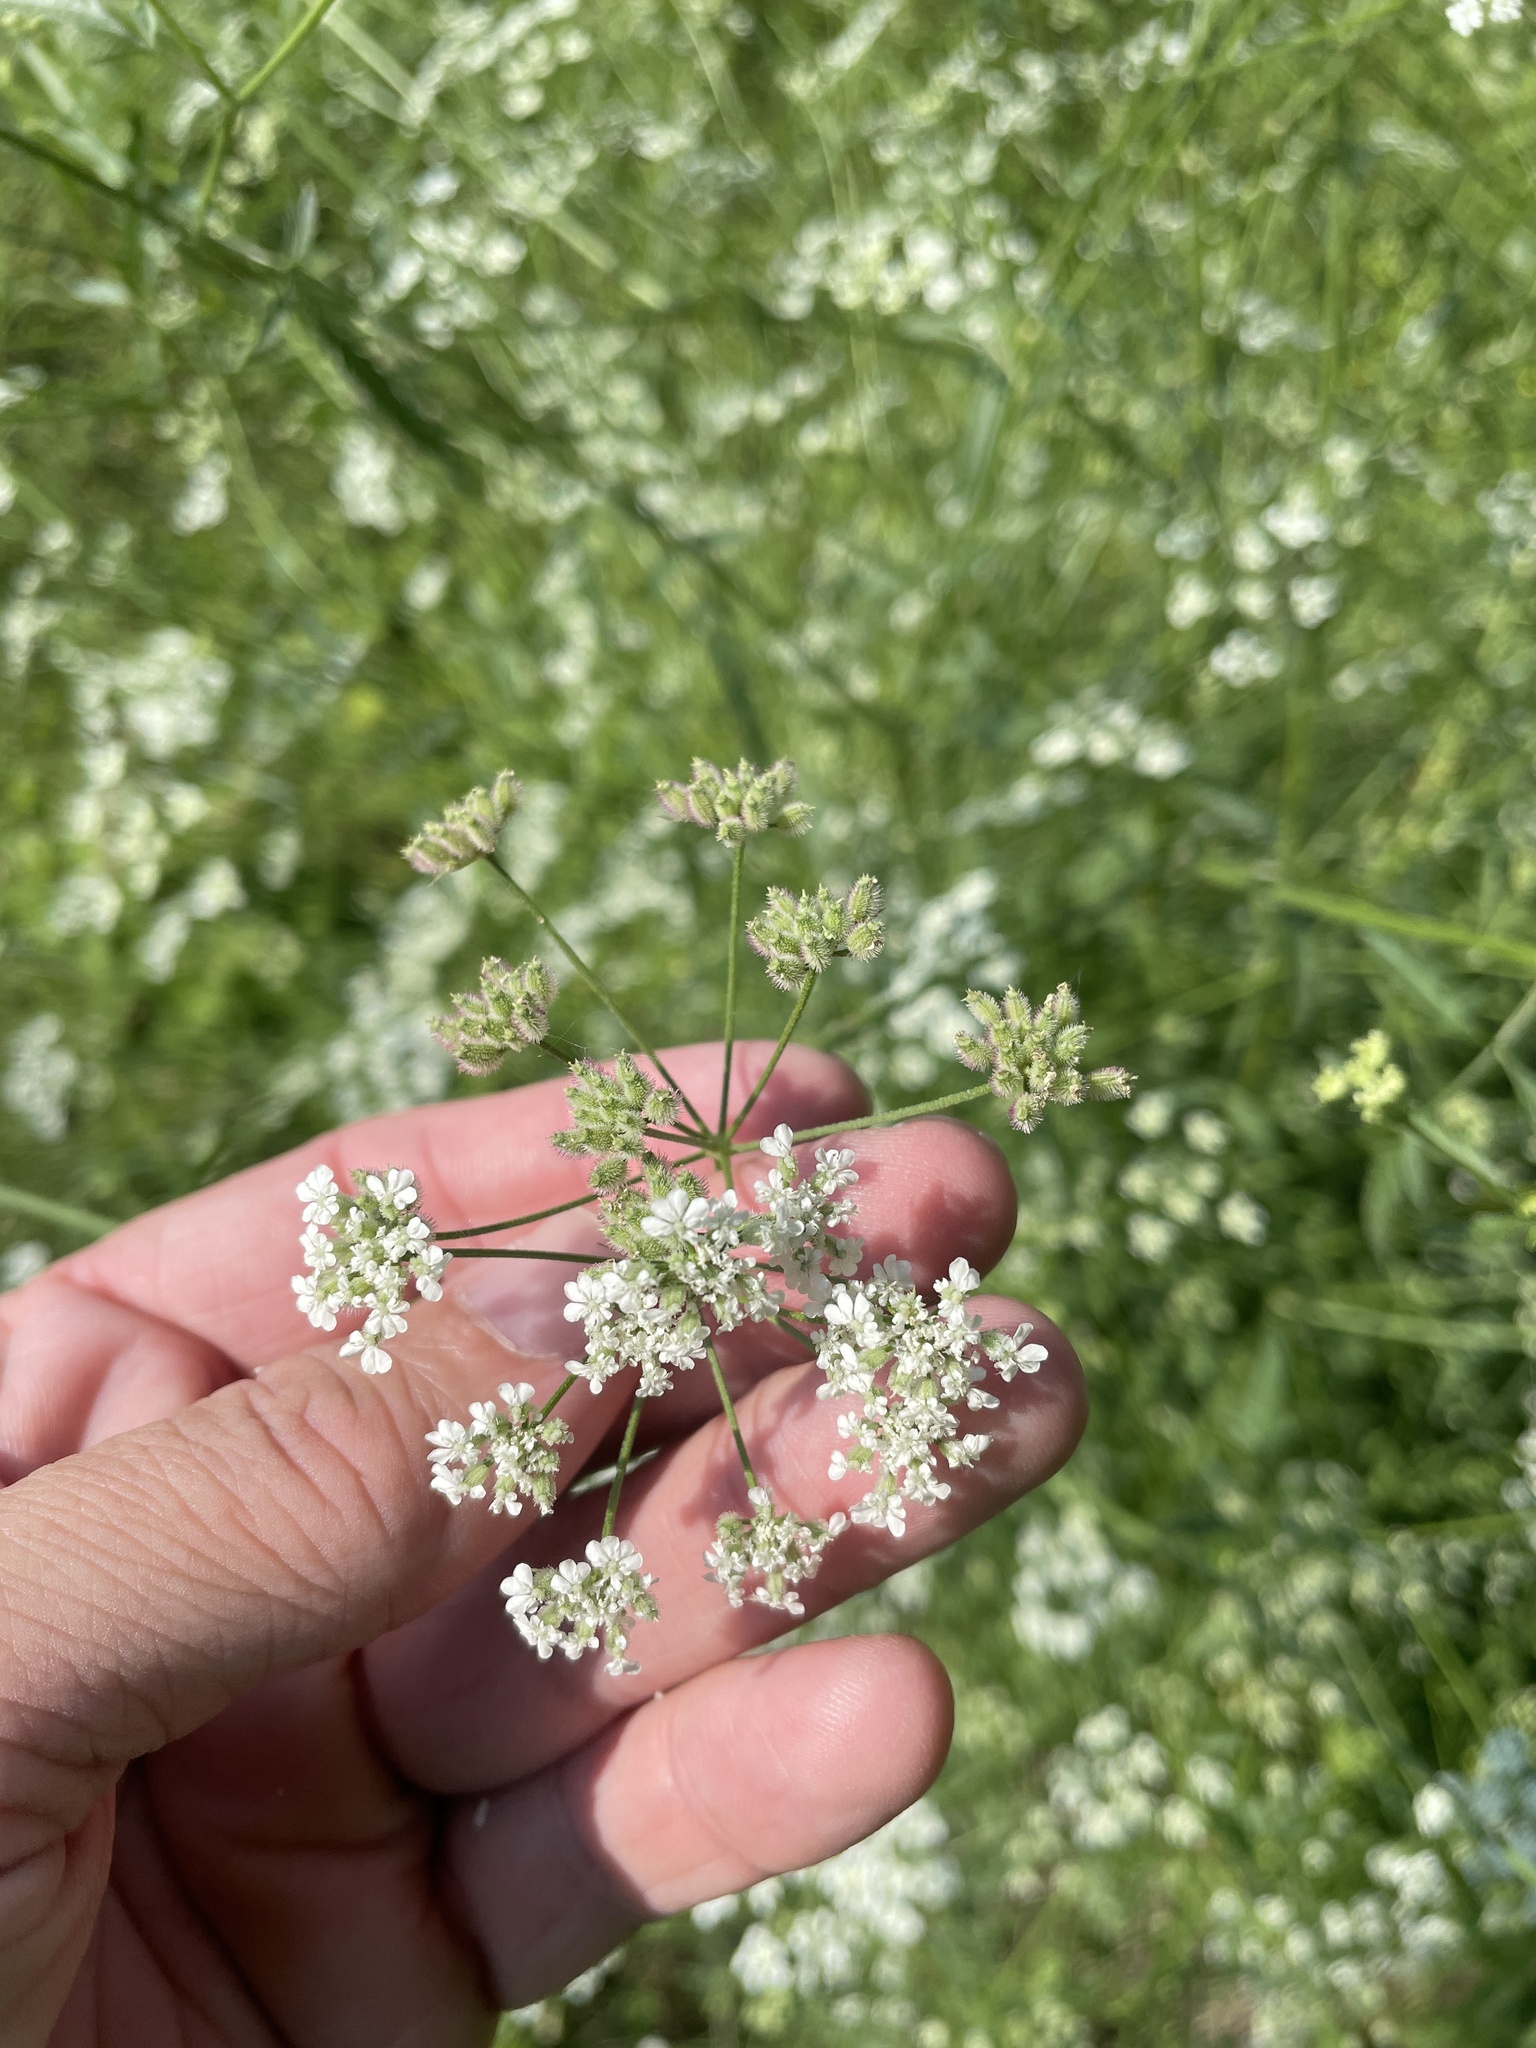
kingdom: Plantae
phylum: Tracheophyta
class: Magnoliopsida
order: Apiales
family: Apiaceae
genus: Torilis
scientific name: Torilis arvensis
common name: Spreading hedge-parsley
